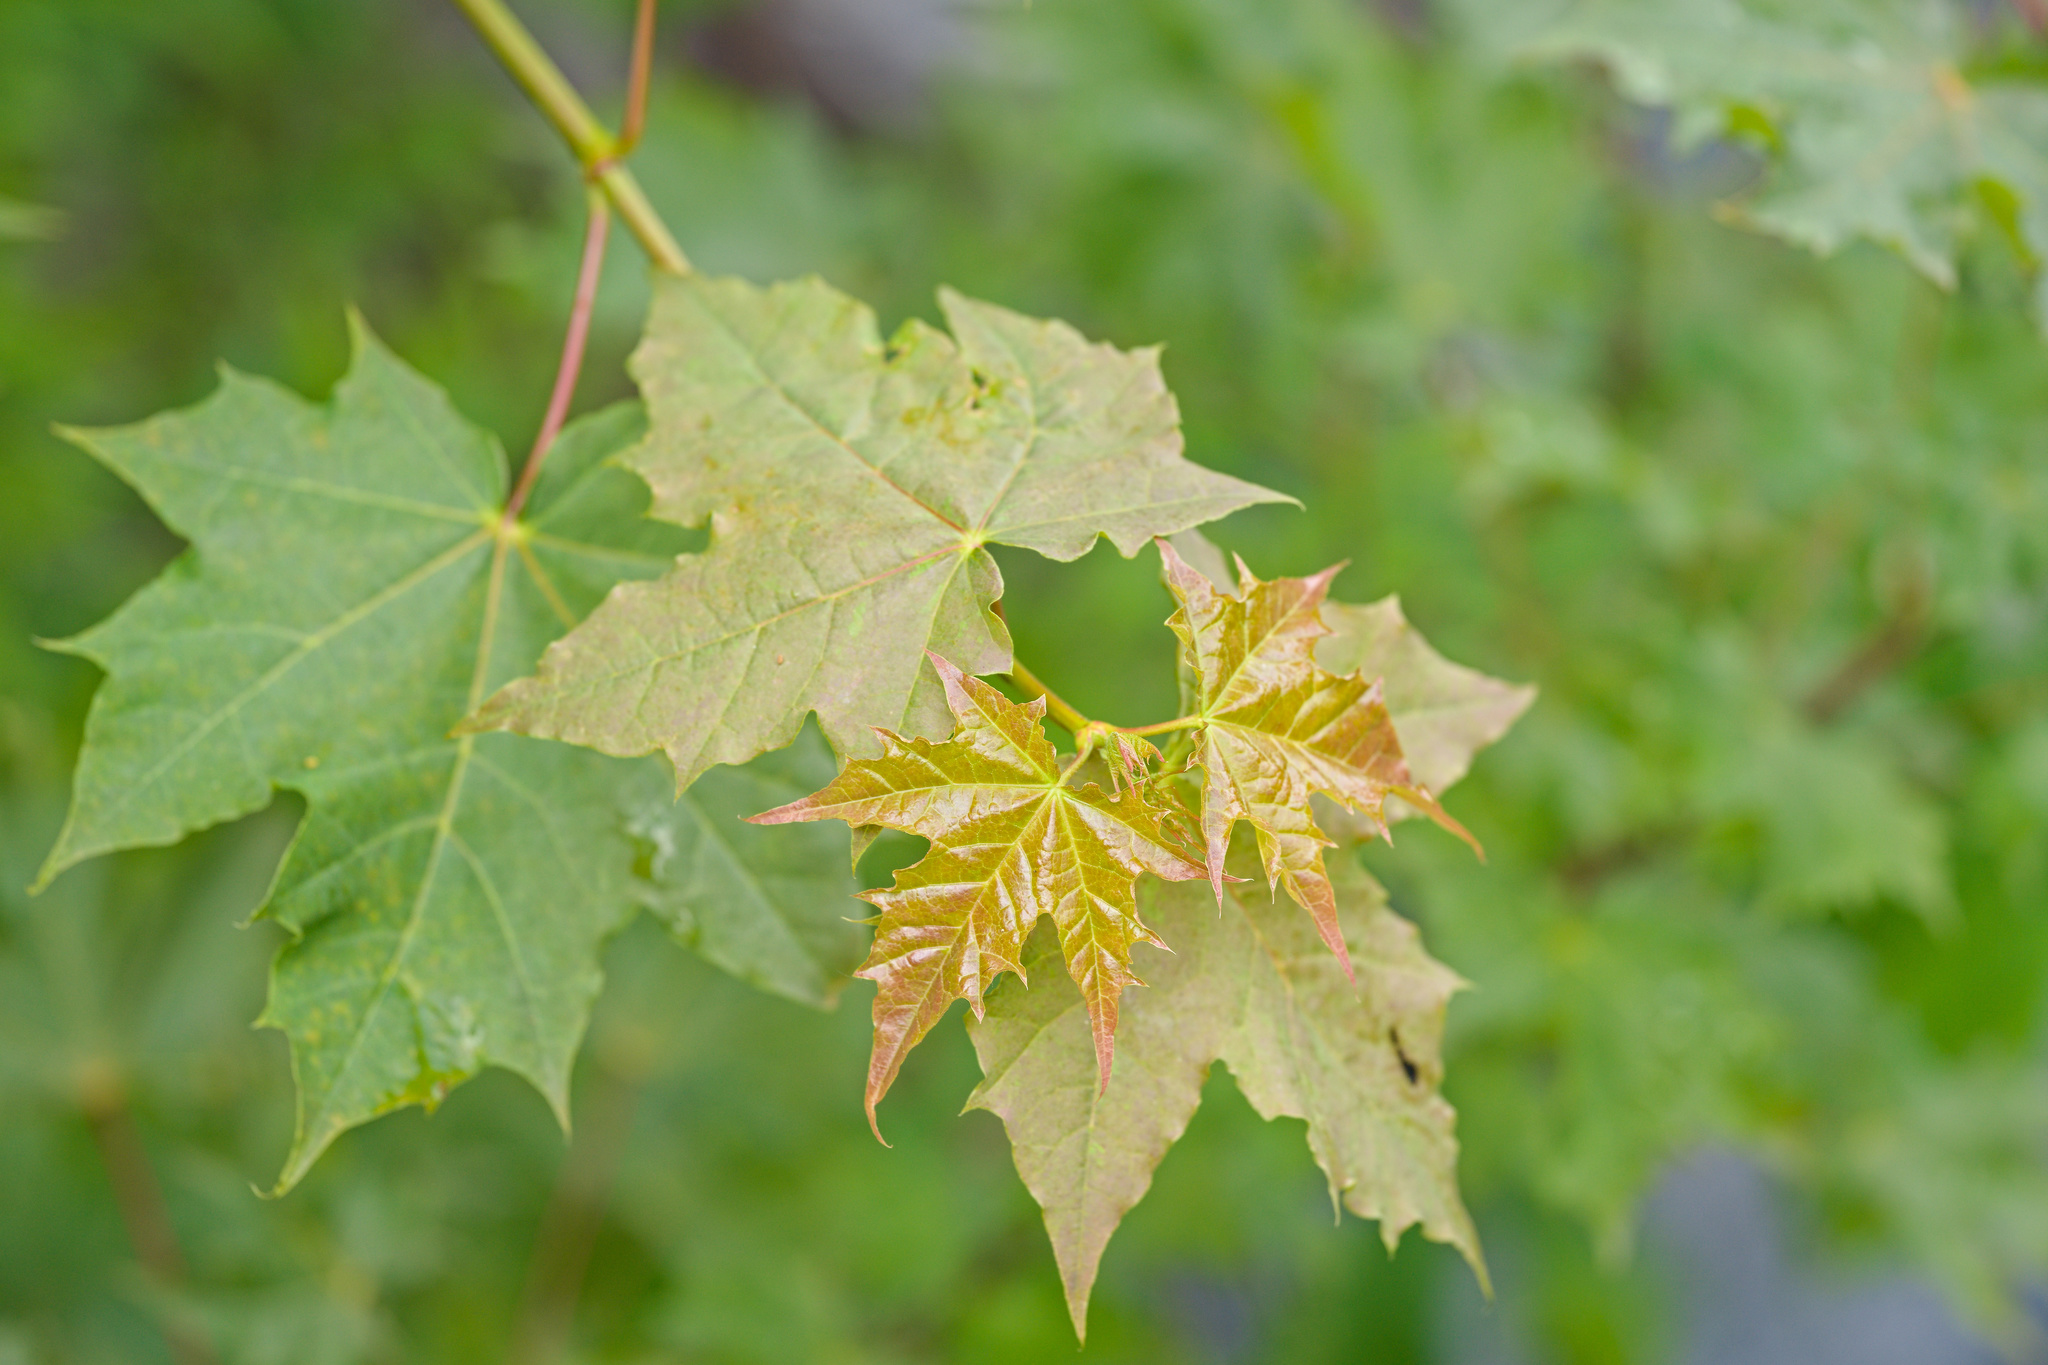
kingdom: Plantae
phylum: Tracheophyta
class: Magnoliopsida
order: Sapindales
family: Sapindaceae
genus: Acer
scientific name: Acer platanoides
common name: Norway maple
